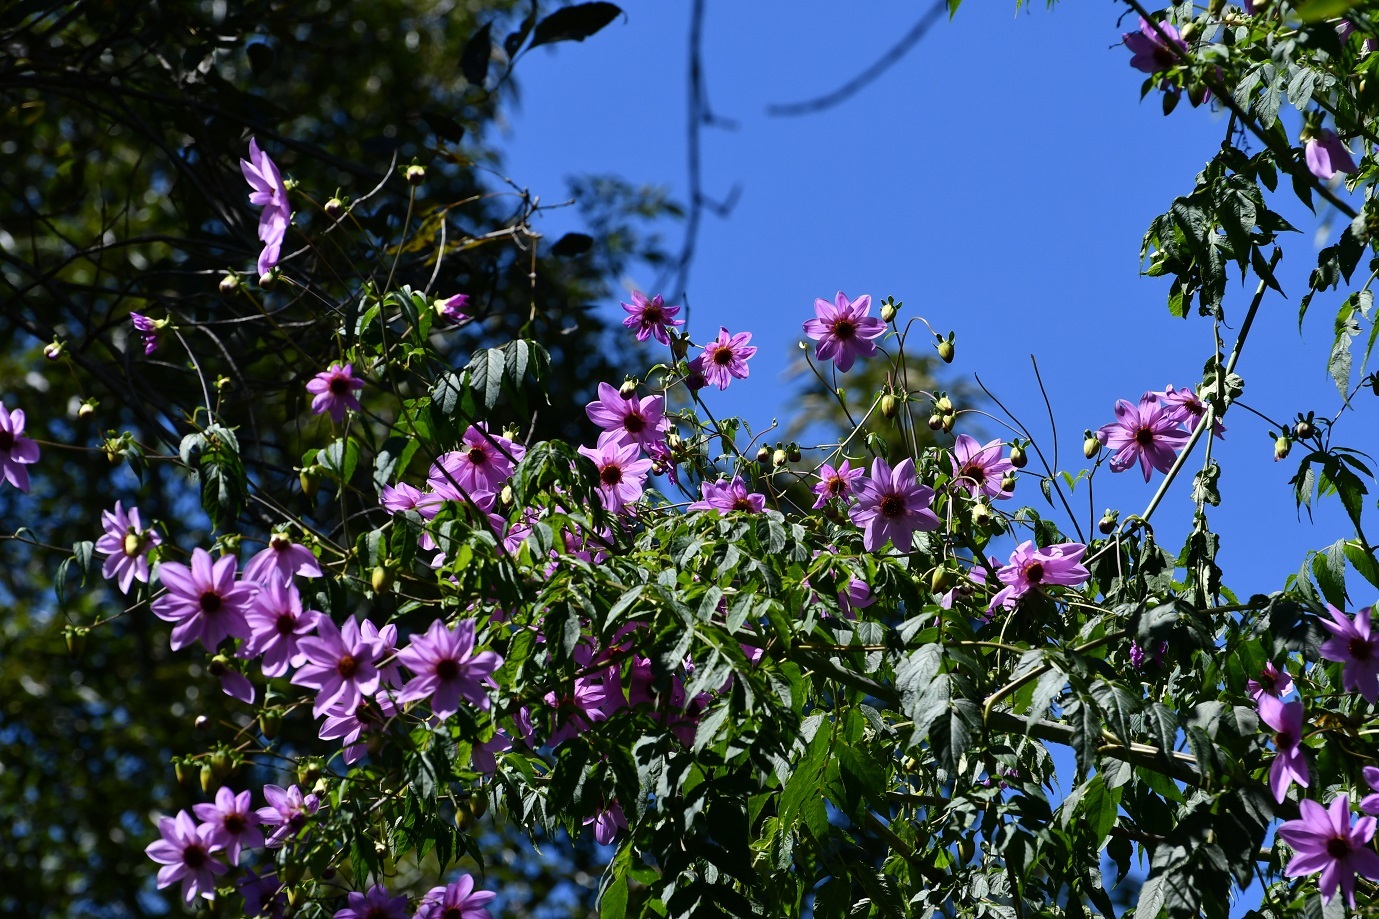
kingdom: Plantae
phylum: Tracheophyta
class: Magnoliopsida
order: Asterales
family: Asteraceae
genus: Dahlia
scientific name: Dahlia imperialis
